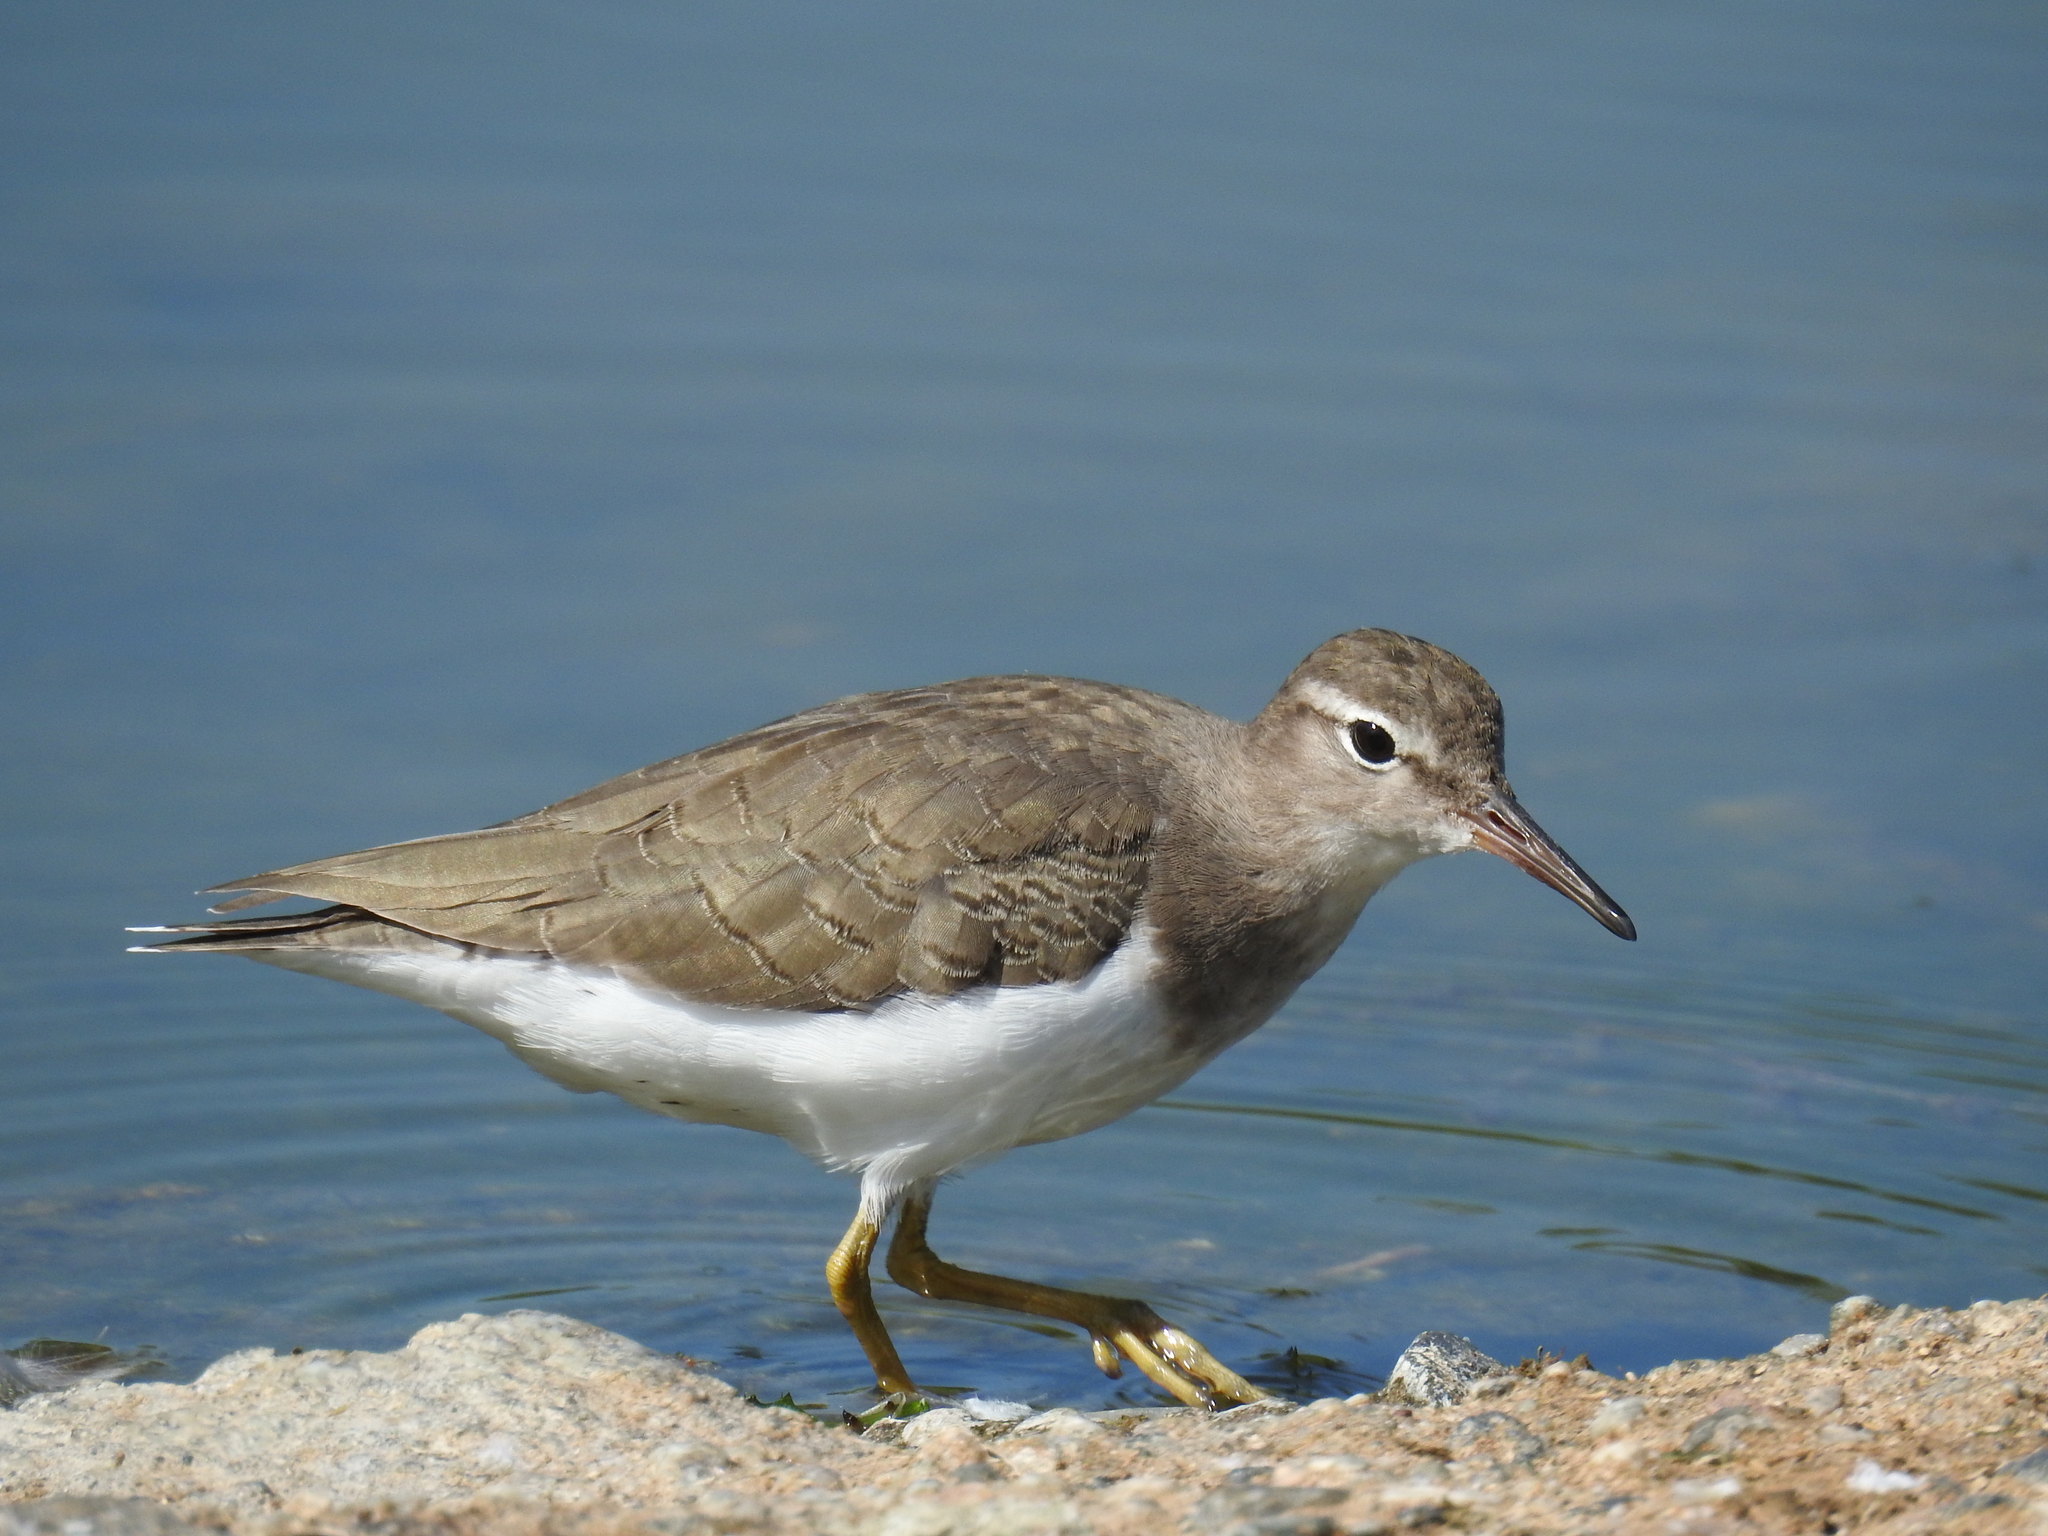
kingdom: Animalia
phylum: Chordata
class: Aves
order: Charadriiformes
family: Scolopacidae
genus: Actitis
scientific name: Actitis macularius
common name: Spotted sandpiper
